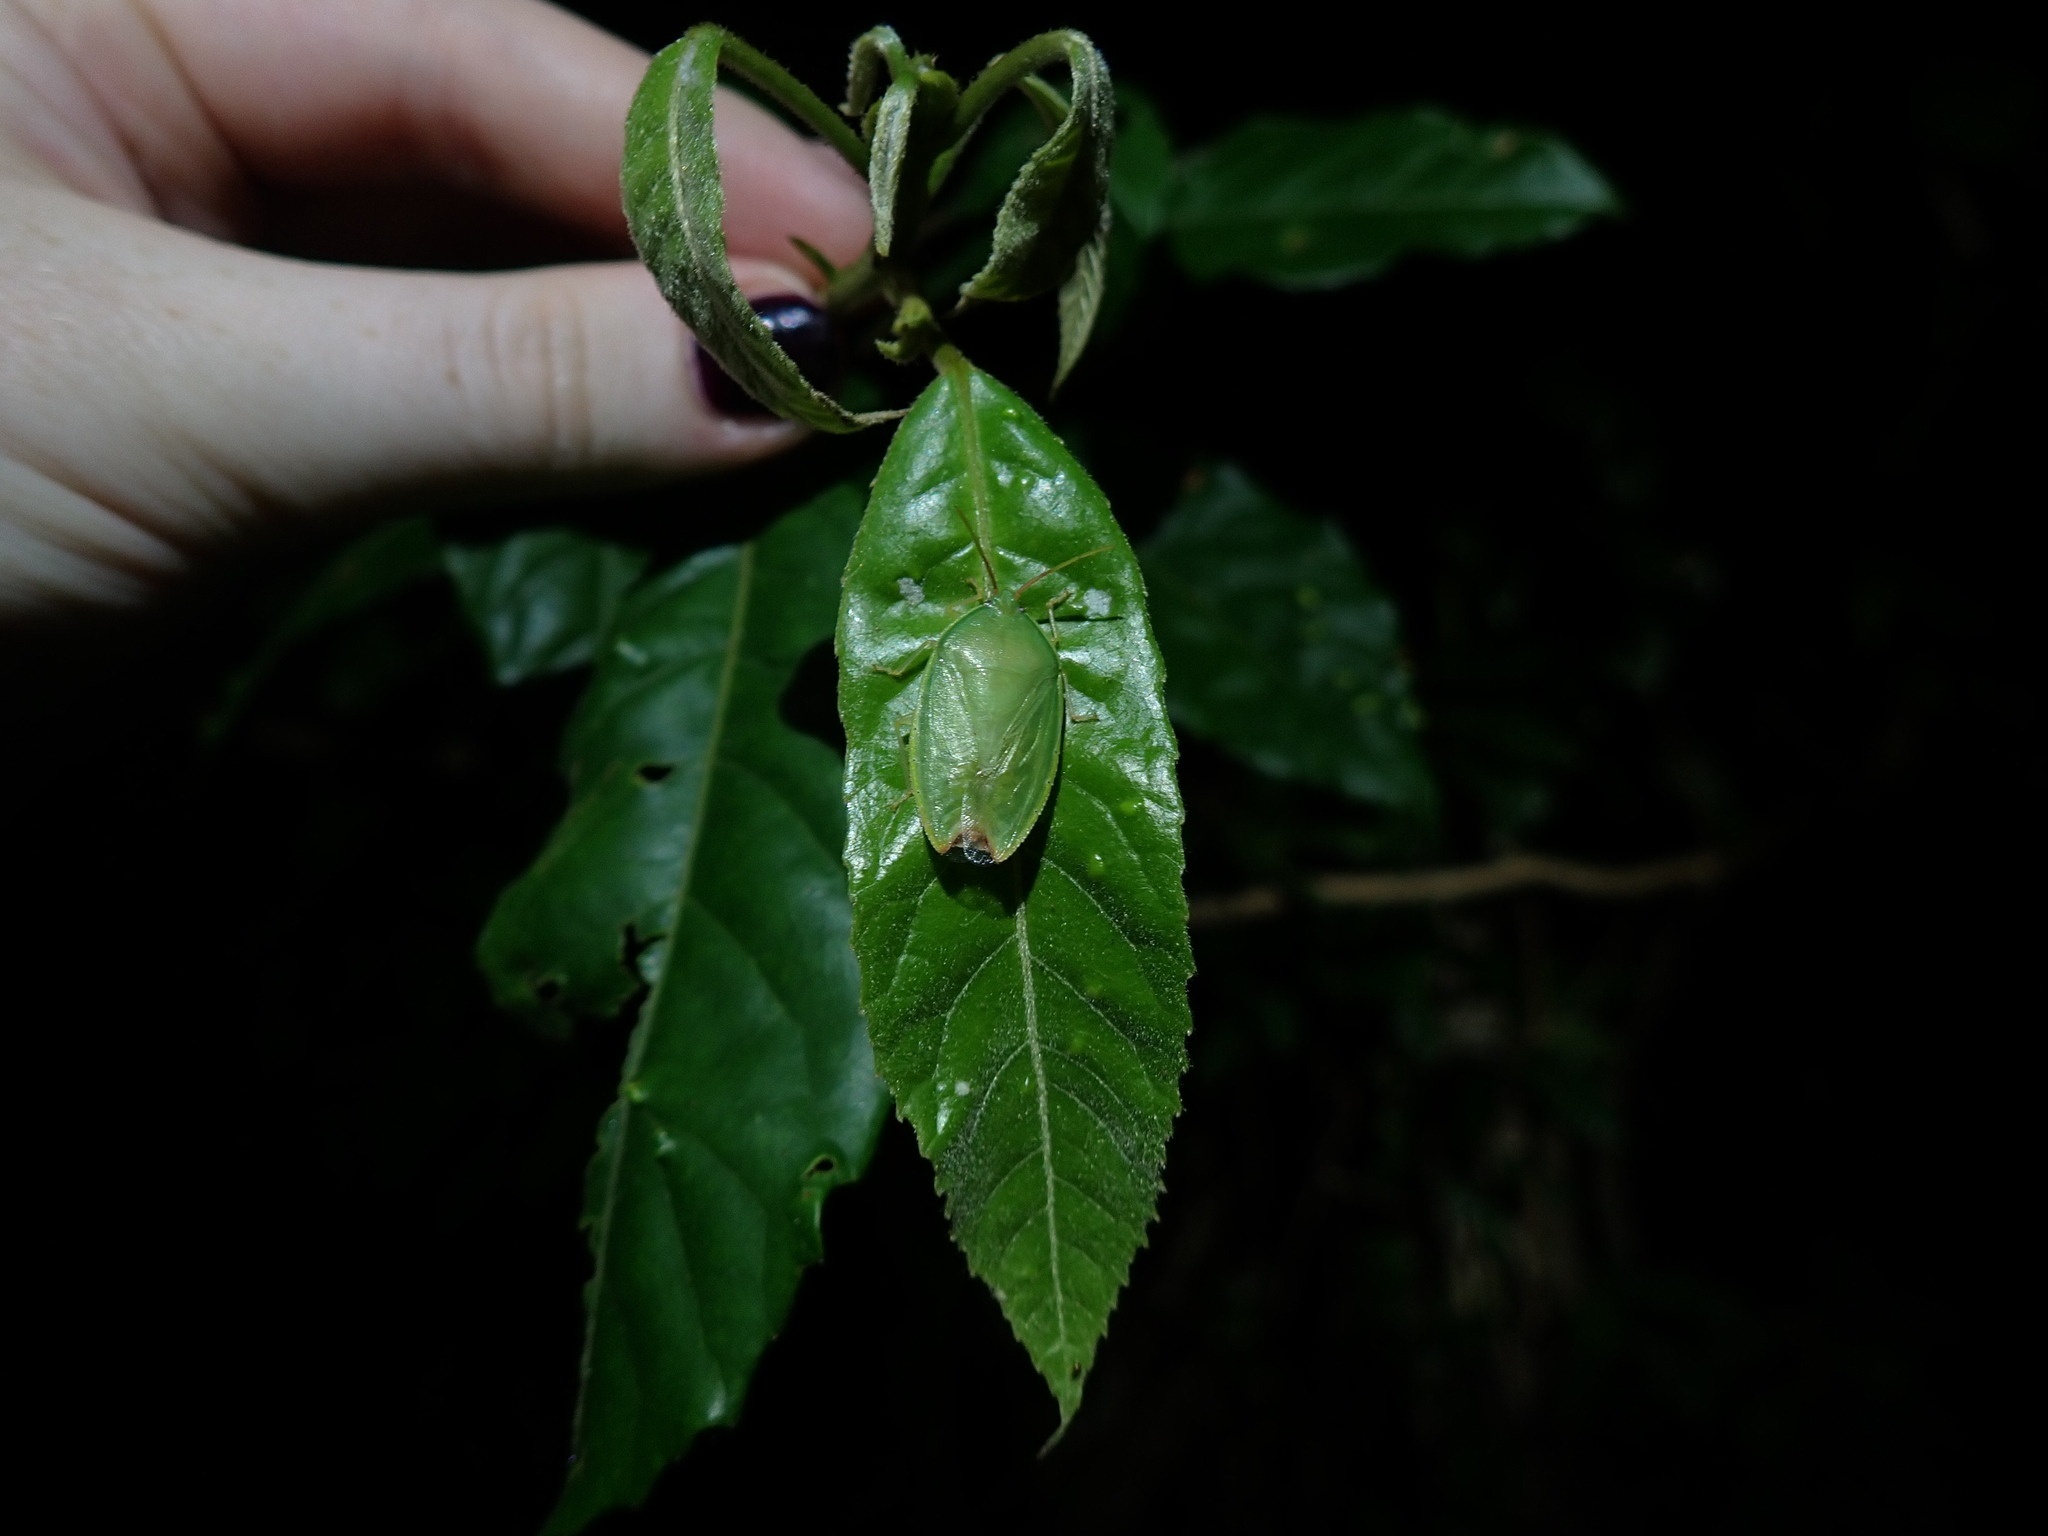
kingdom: Animalia
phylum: Arthropoda
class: Insecta
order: Hemiptera
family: Tessaratomidae
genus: Garceus
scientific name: Garceus fidelis
